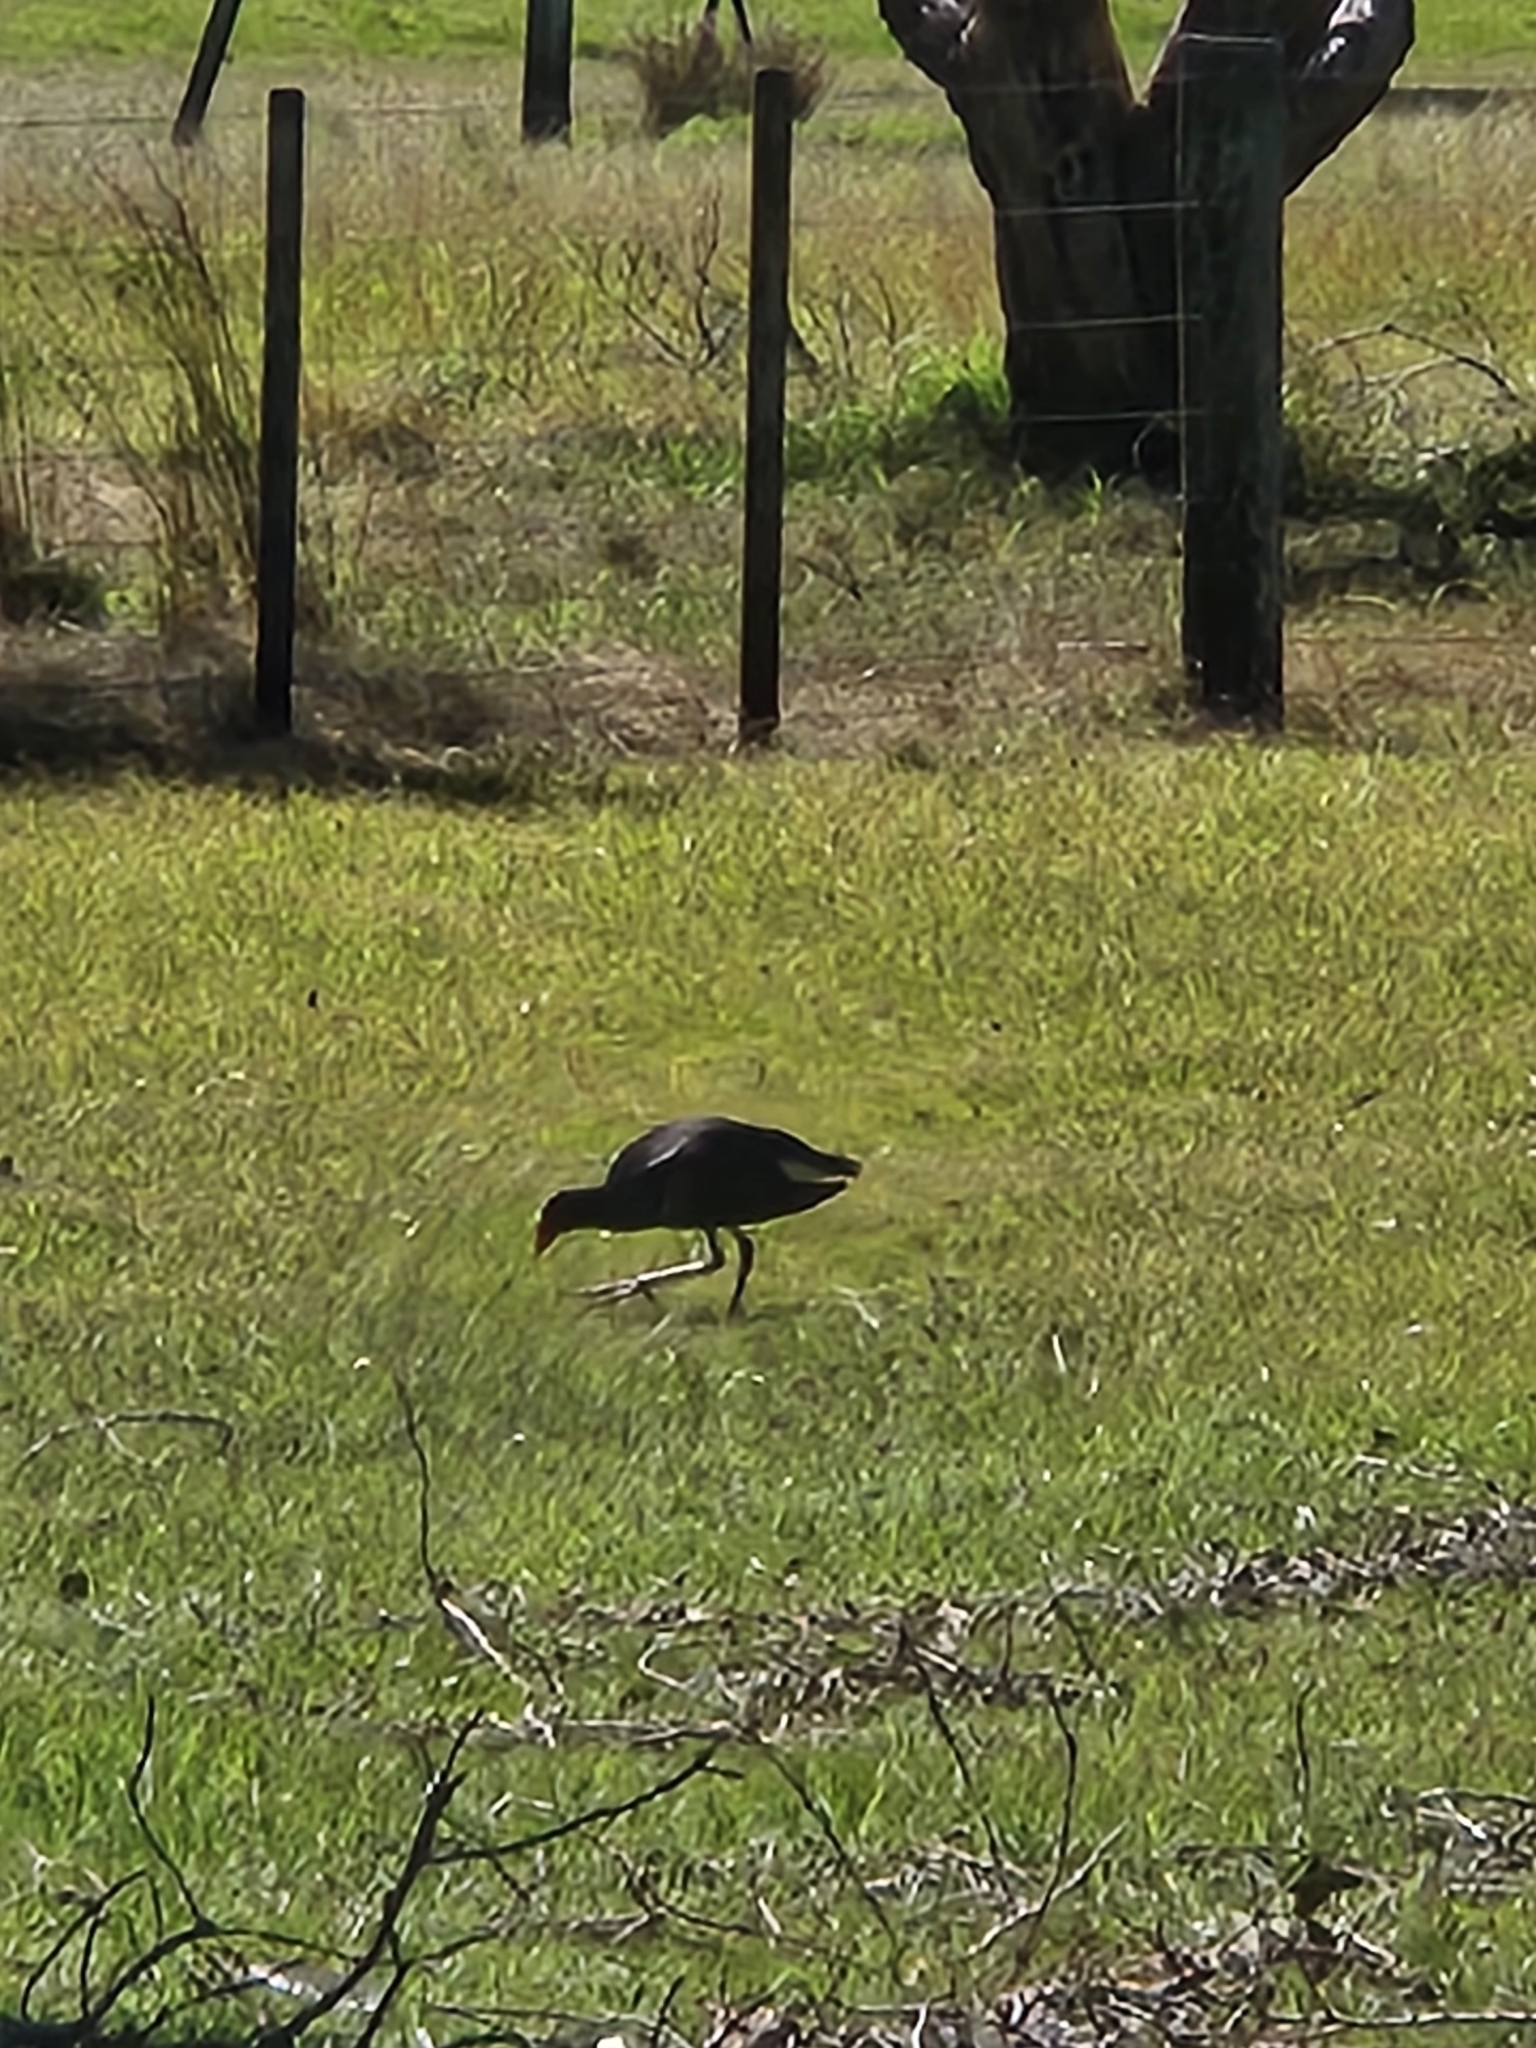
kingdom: Animalia
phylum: Chordata
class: Aves
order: Gruiformes
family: Rallidae
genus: Porphyrio
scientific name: Porphyrio melanotus
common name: Australasian swamphen
